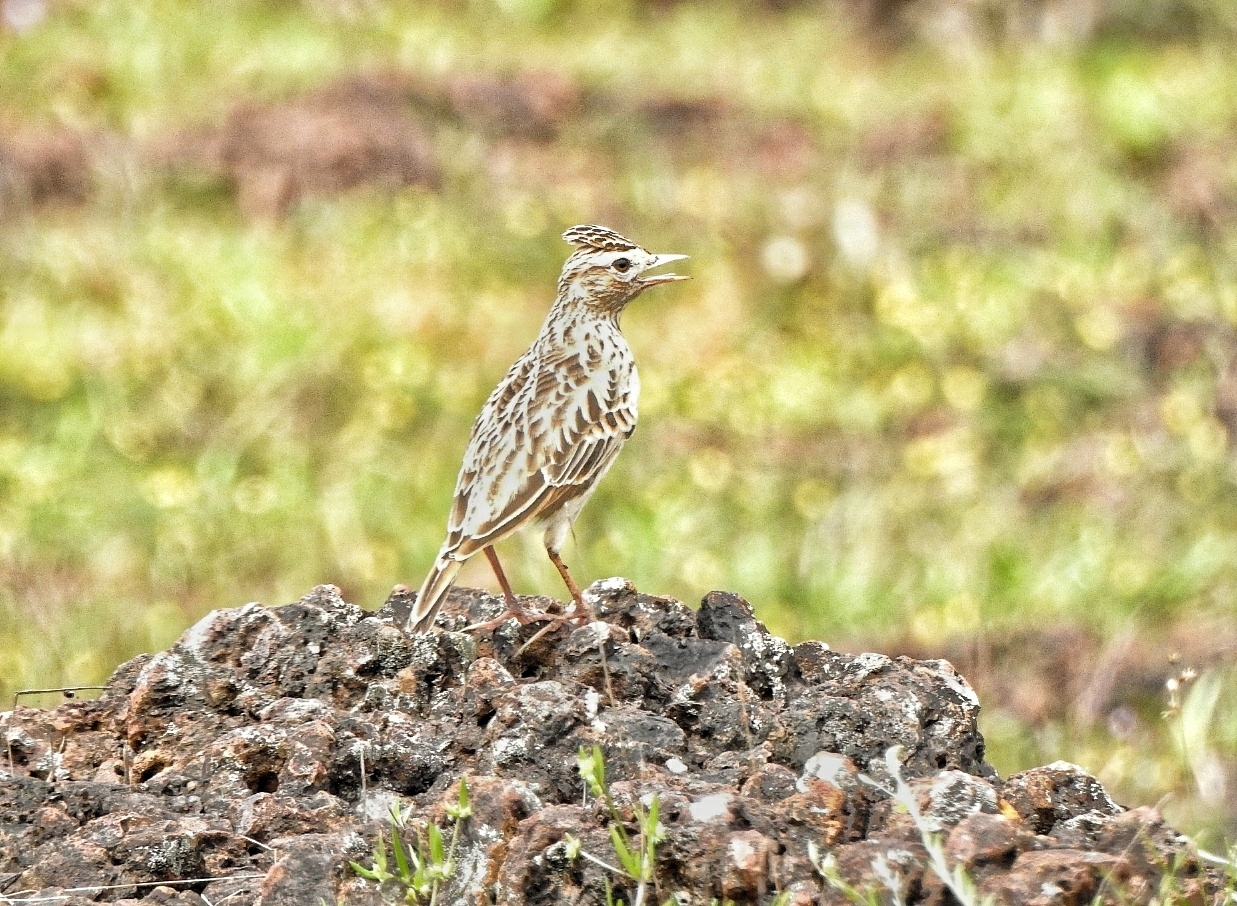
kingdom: Animalia
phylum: Chordata
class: Aves
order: Passeriformes
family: Alaudidae
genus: Alauda
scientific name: Alauda gulgula
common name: Oriental skylark
